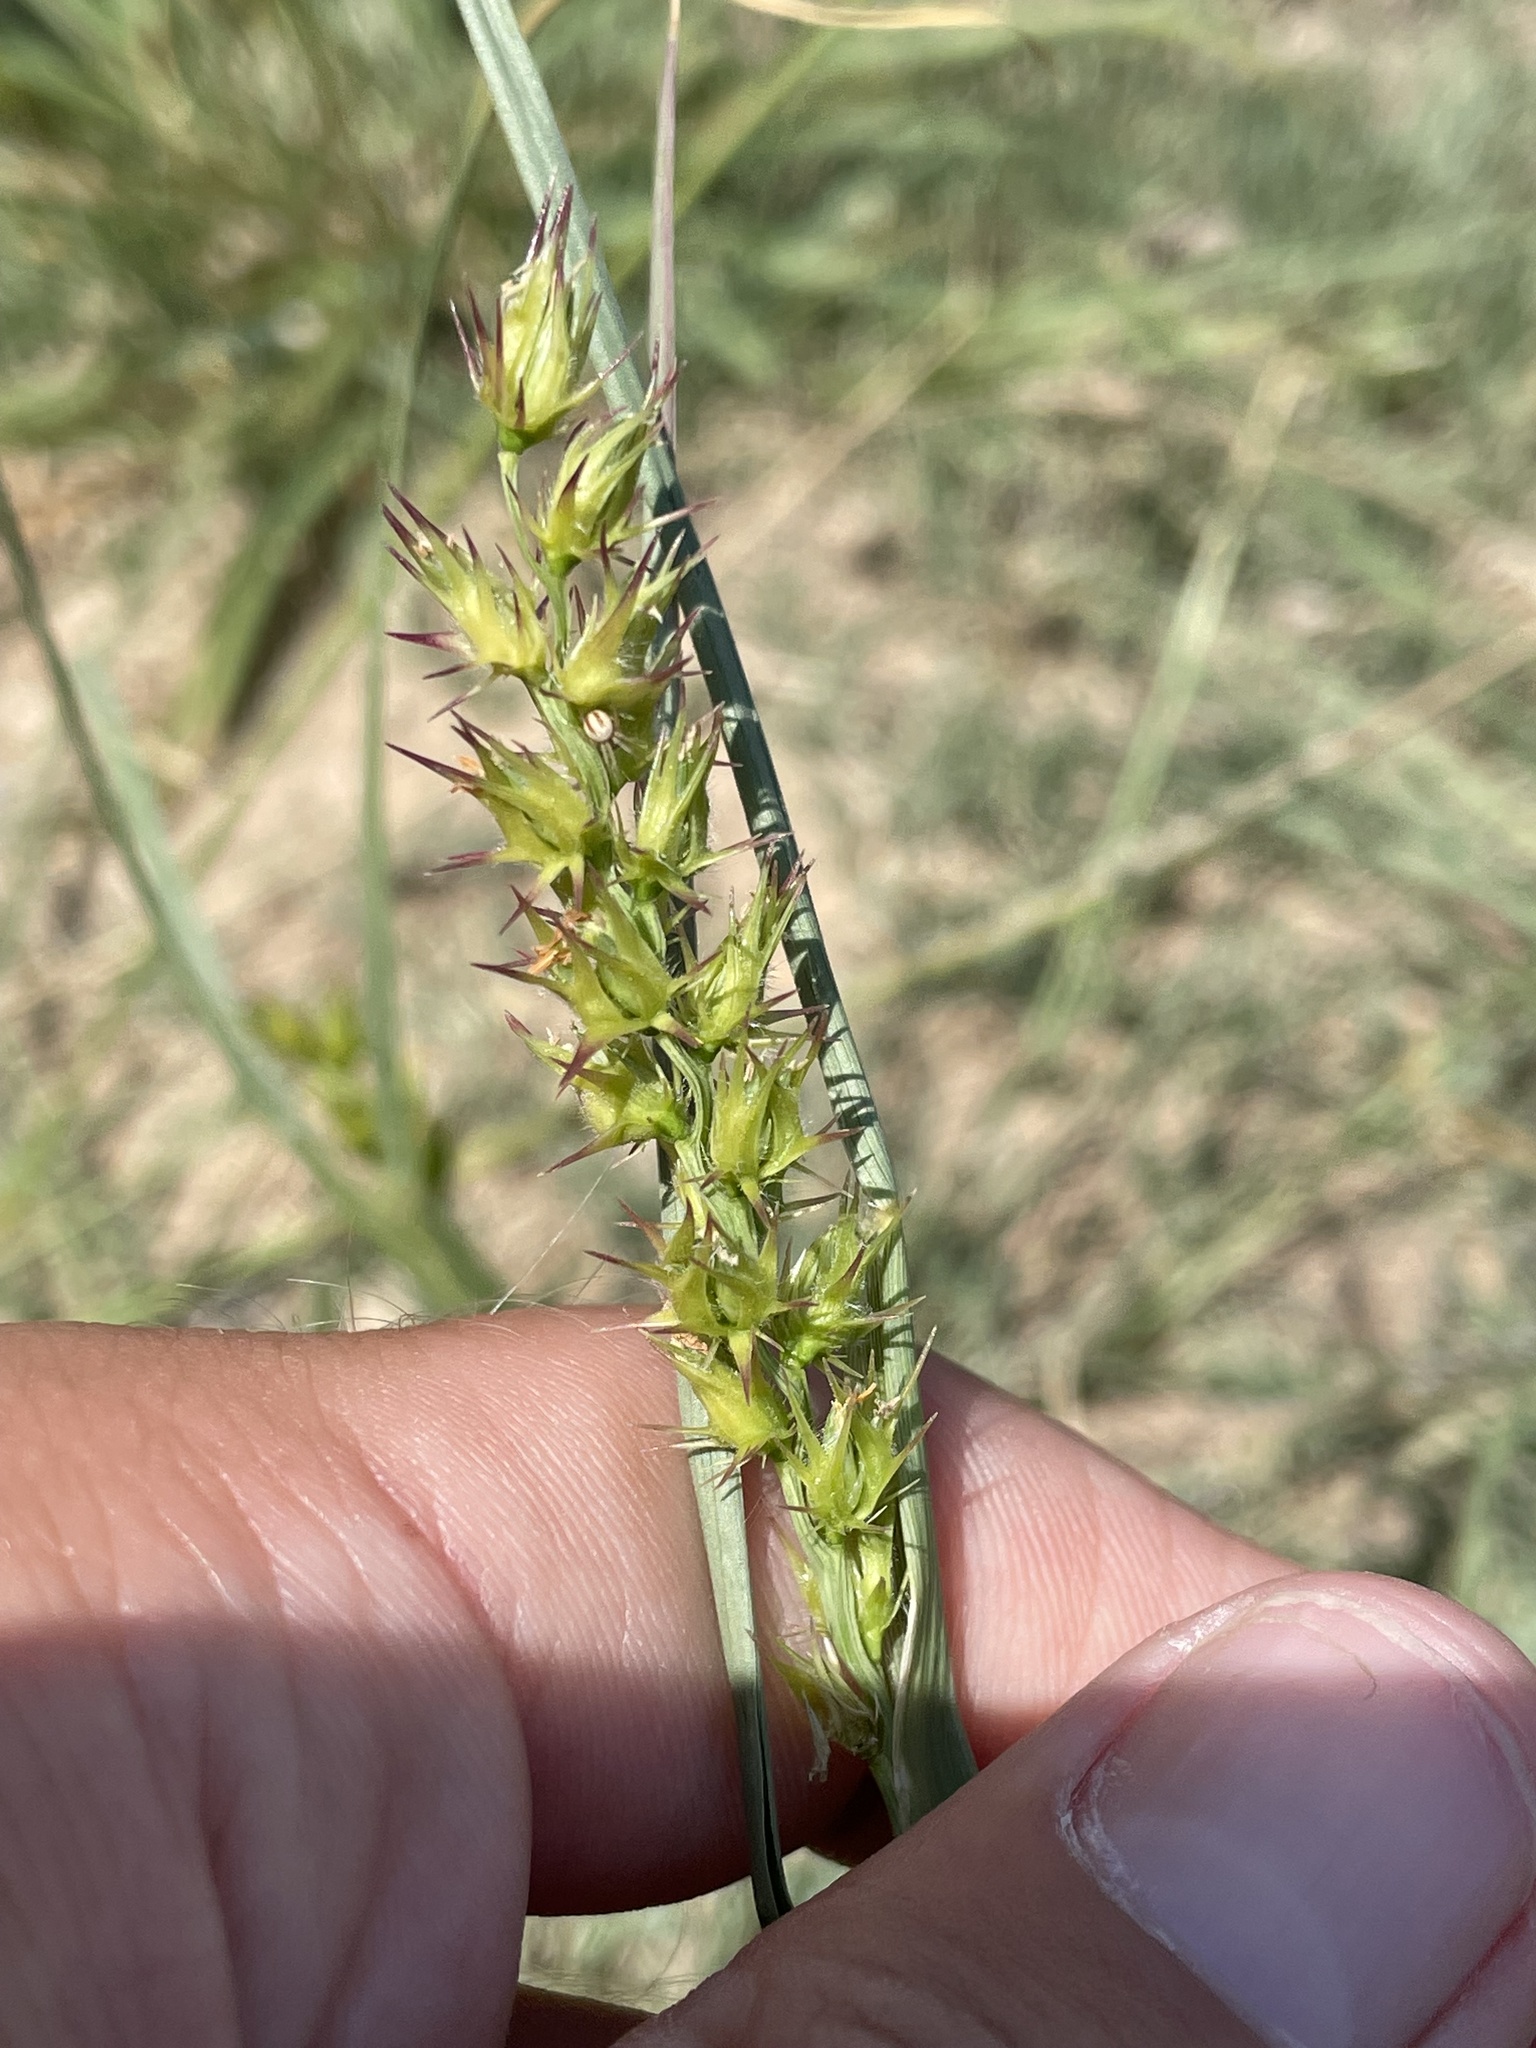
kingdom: Plantae
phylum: Tracheophyta
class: Liliopsida
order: Poales
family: Poaceae
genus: Cenchrus
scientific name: Cenchrus spinifex
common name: Coast sandbur
